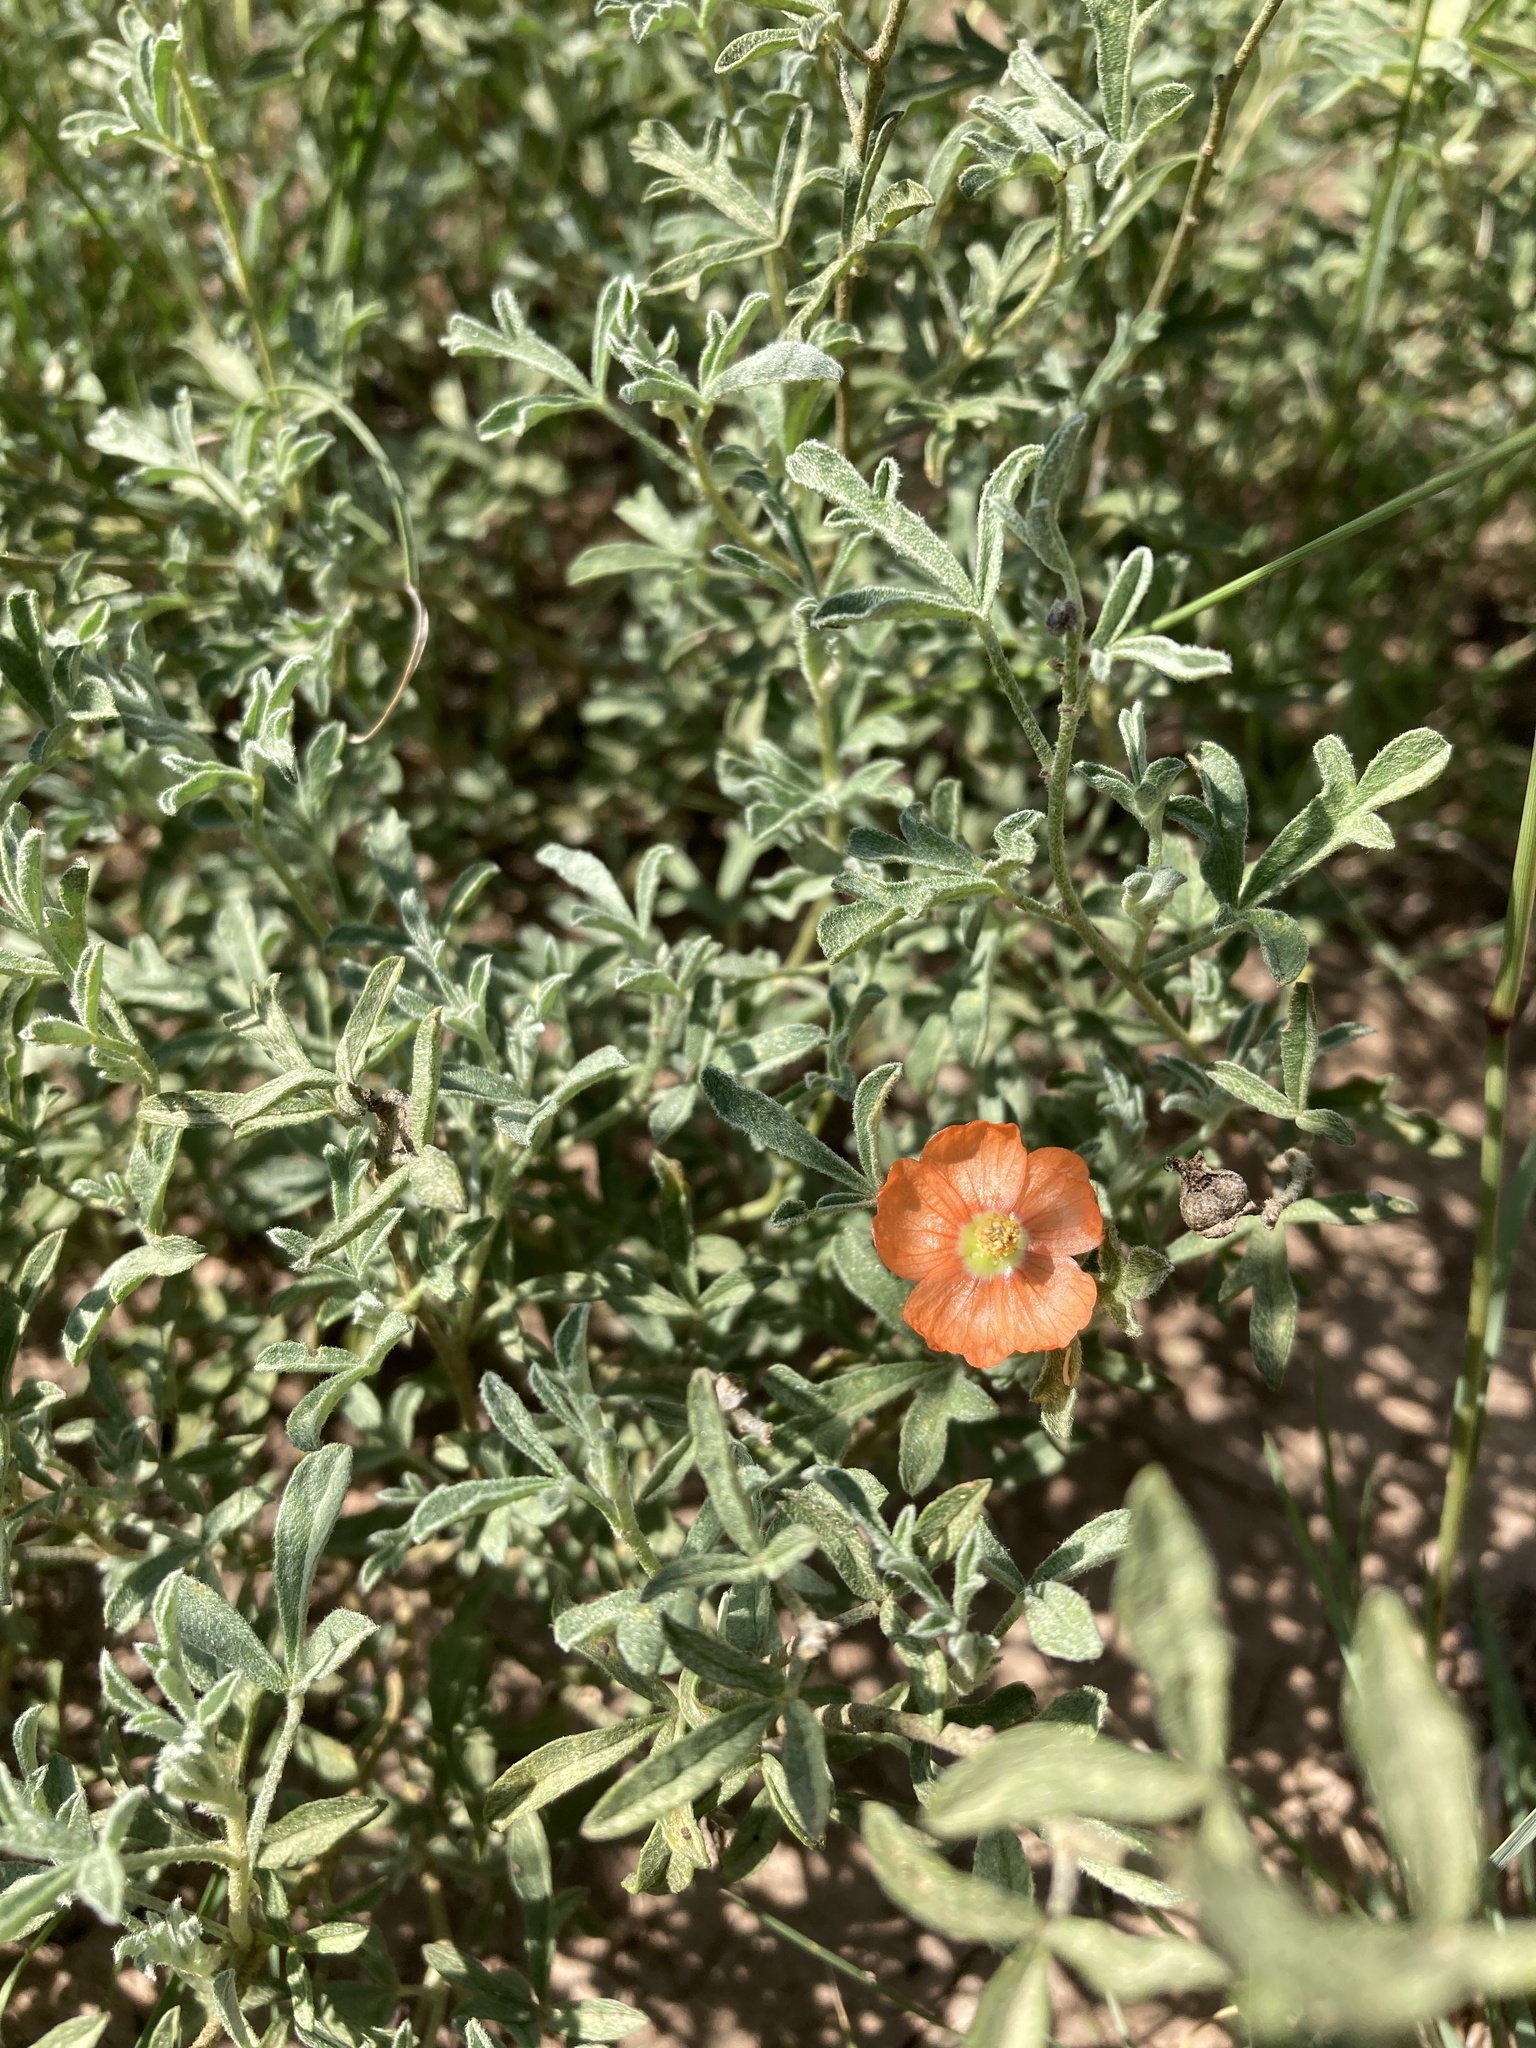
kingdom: Plantae
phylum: Tracheophyta
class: Magnoliopsida
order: Malvales
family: Malvaceae
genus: Sphaeralcea
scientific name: Sphaeralcea coccinea
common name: Moss-rose
